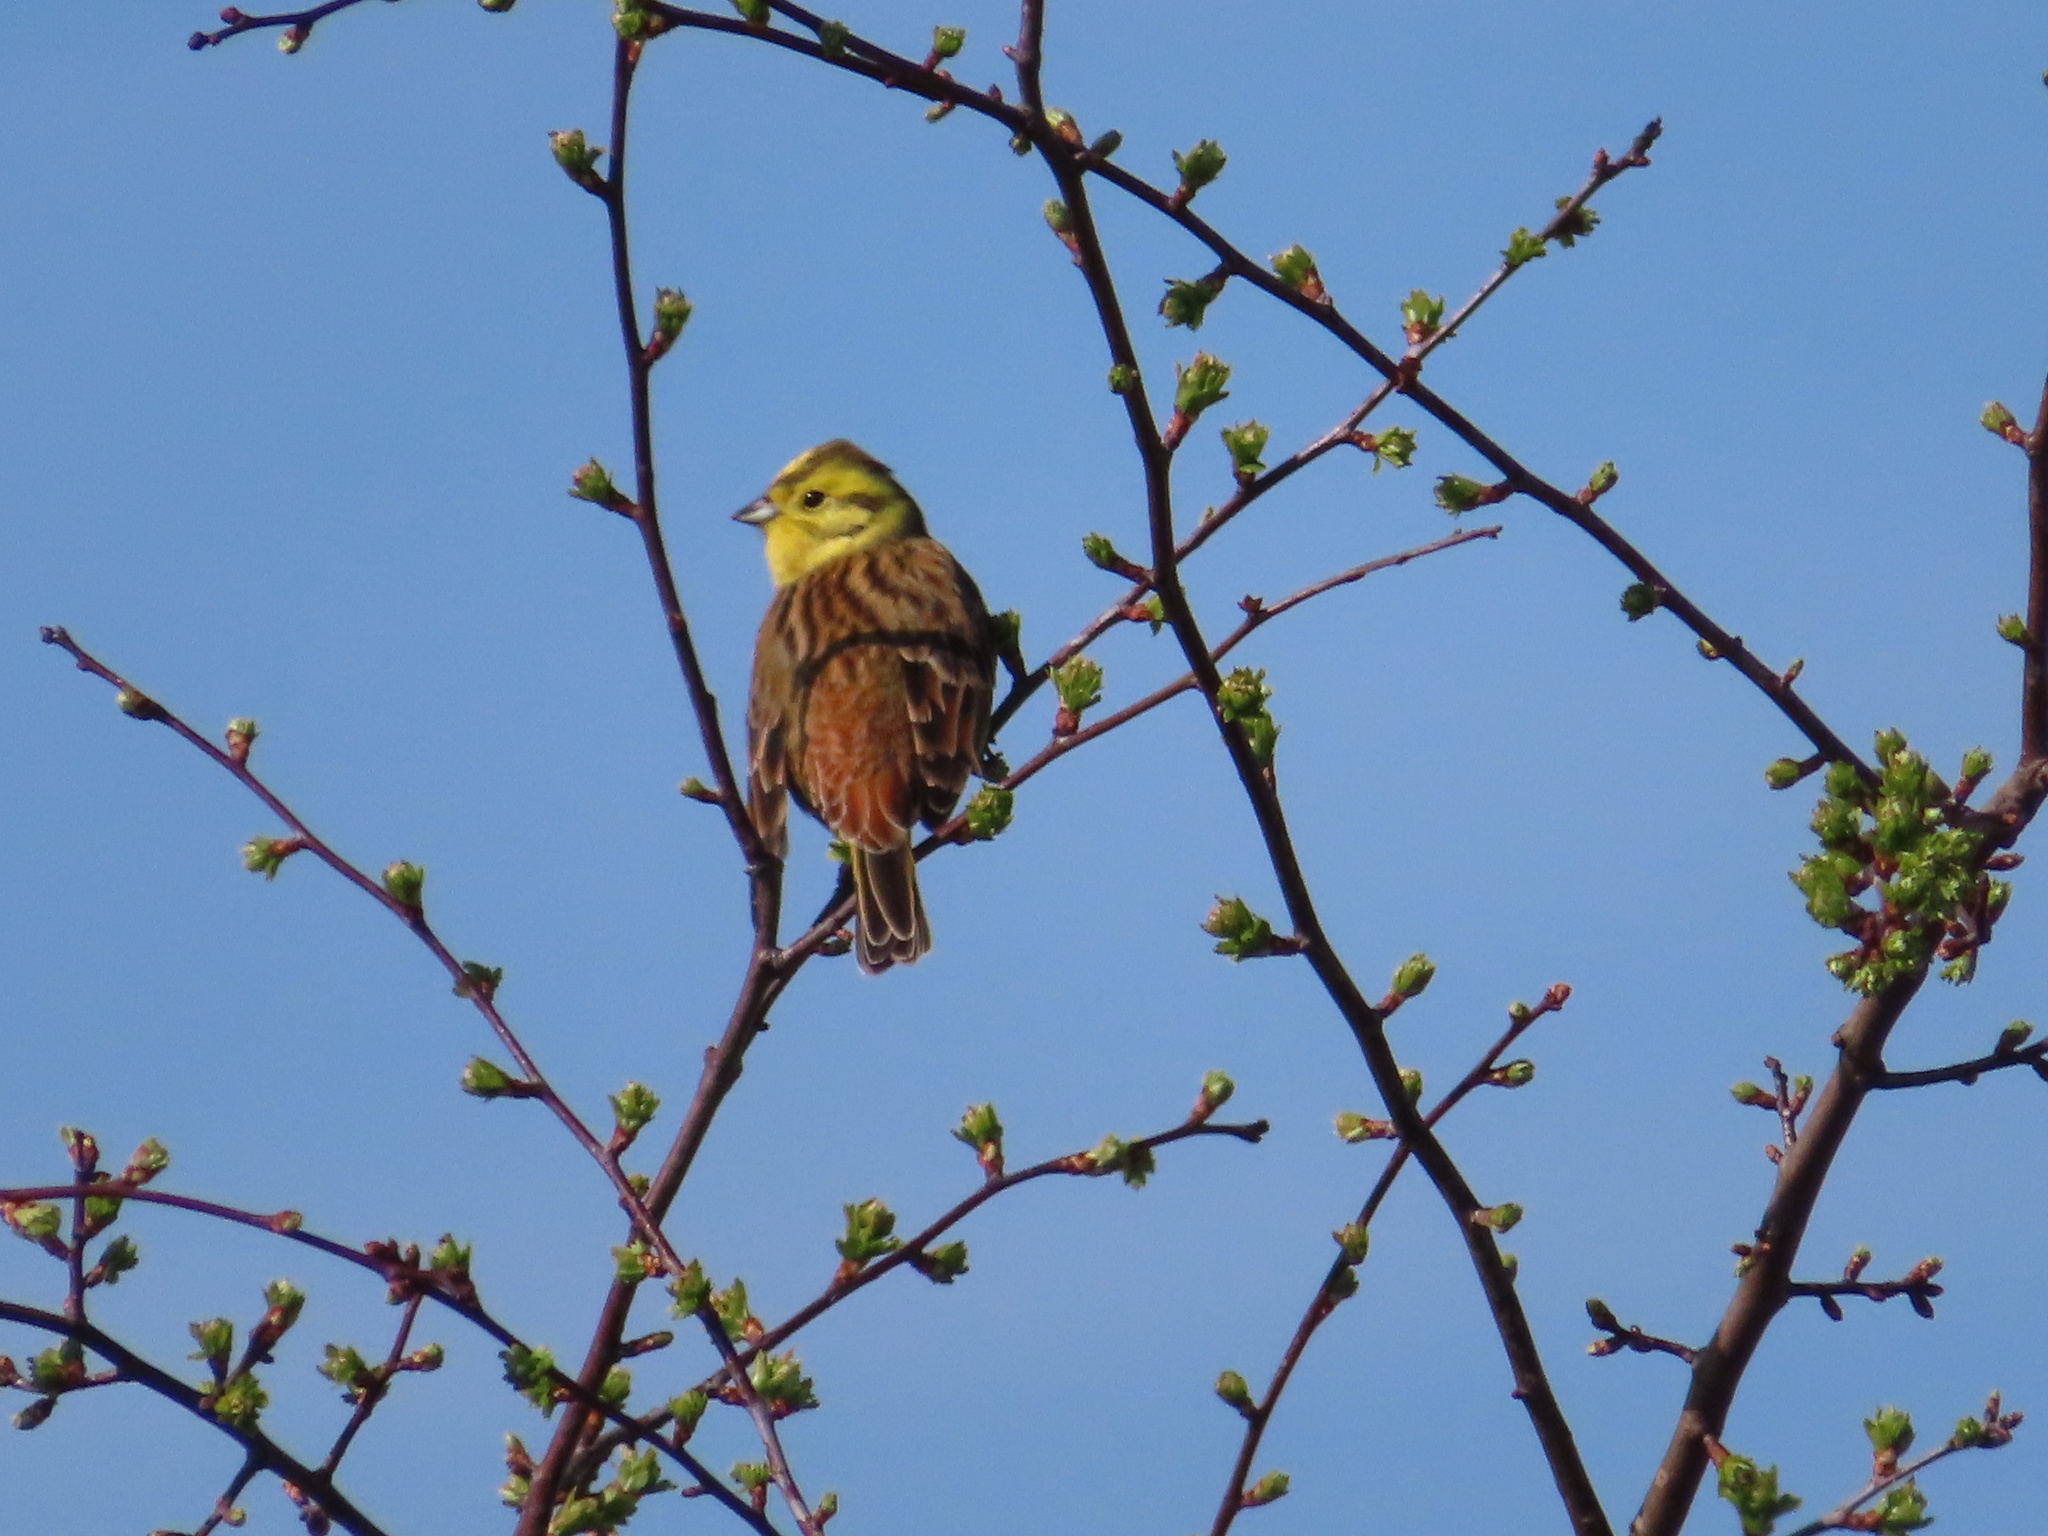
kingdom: Animalia
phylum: Chordata
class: Aves
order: Passeriformes
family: Emberizidae
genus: Emberiza
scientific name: Emberiza citrinella
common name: Yellowhammer
